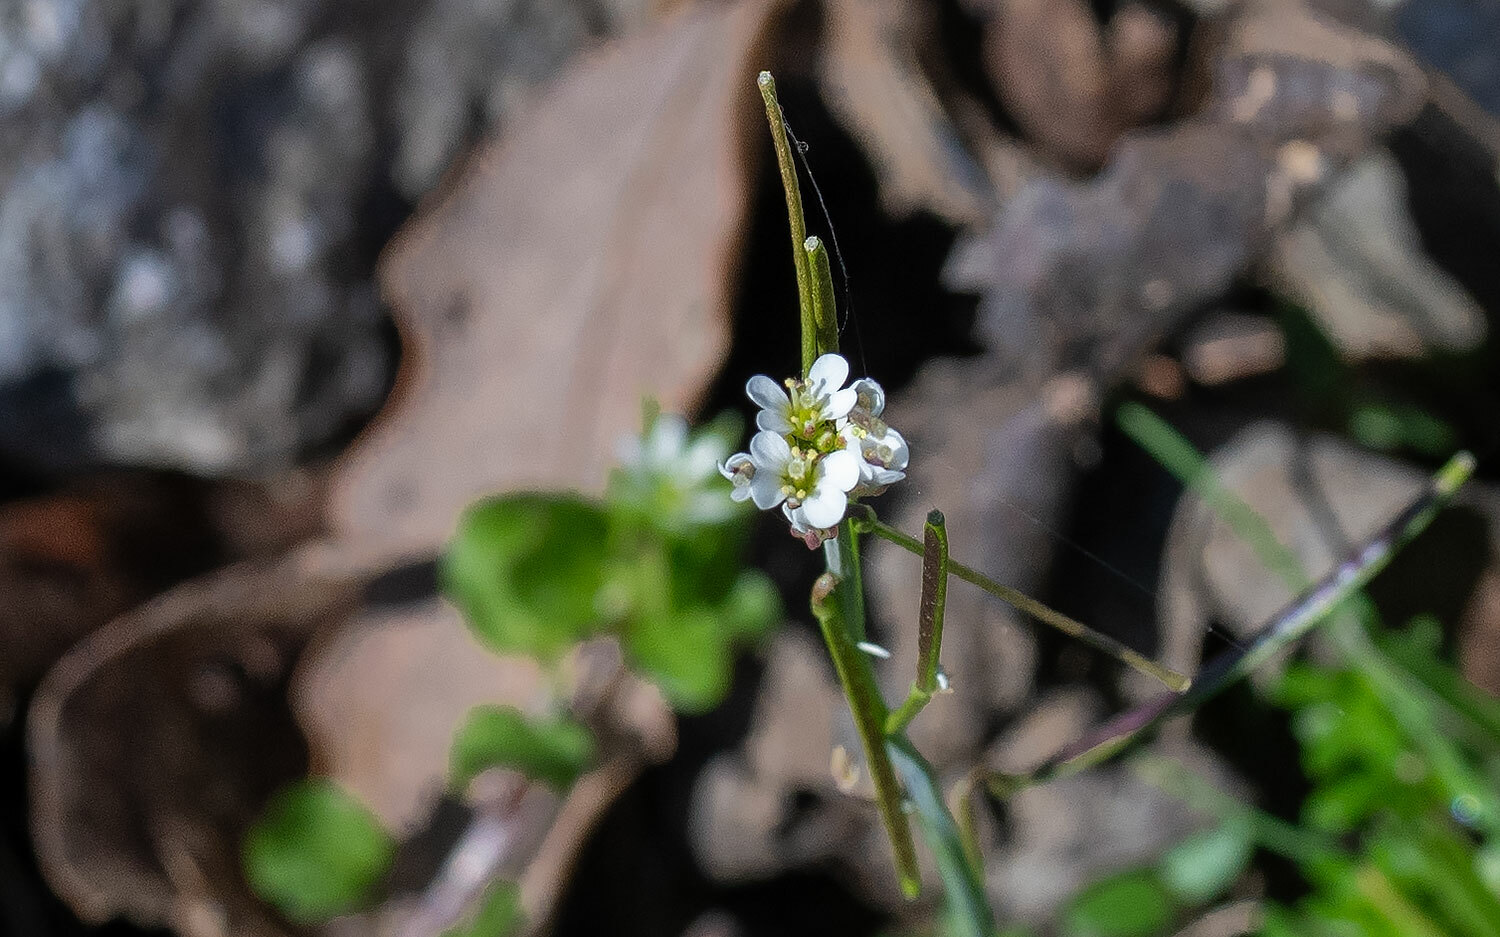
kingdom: Plantae
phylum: Tracheophyta
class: Magnoliopsida
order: Brassicales
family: Brassicaceae
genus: Alliaria
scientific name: Alliaria petiolata
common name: Garlic mustard
